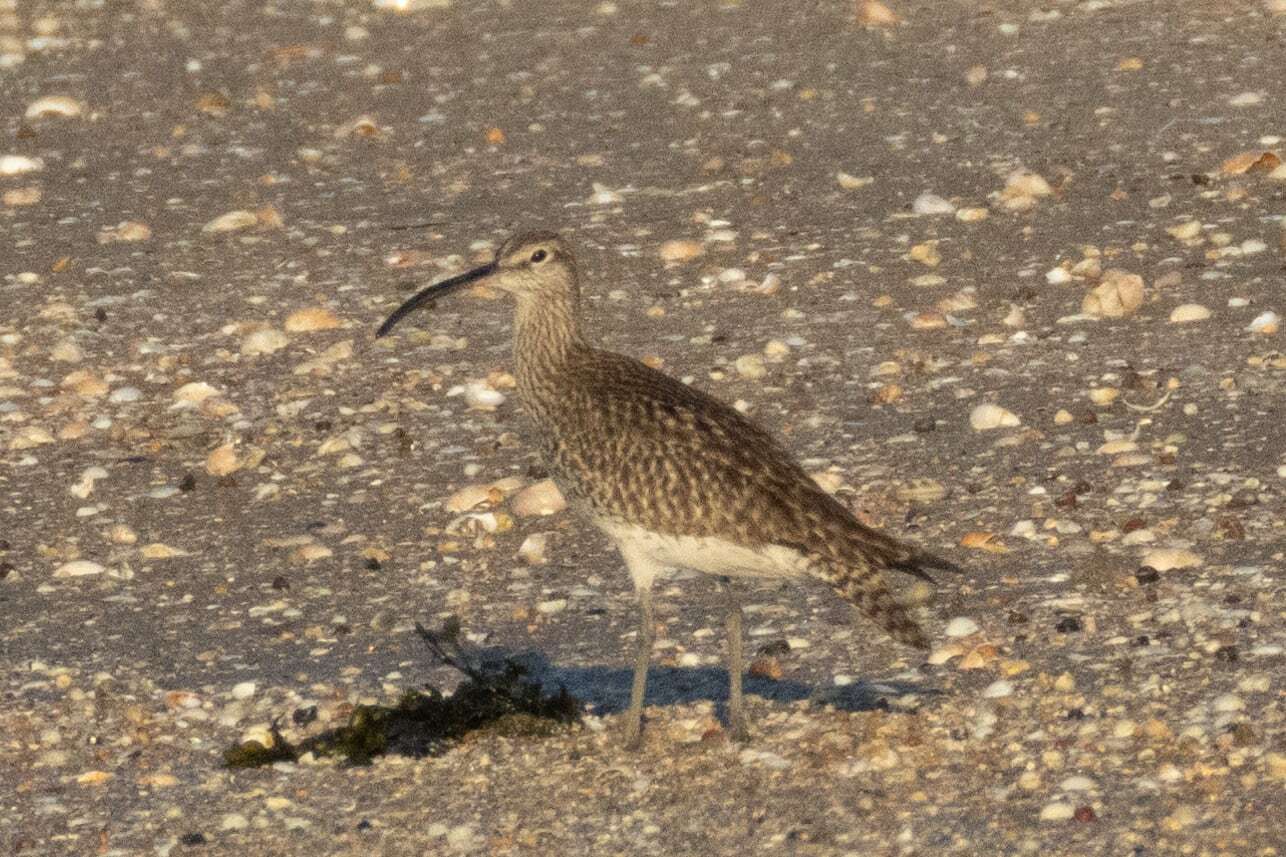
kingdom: Animalia
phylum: Chordata
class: Aves
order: Charadriiformes
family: Scolopacidae
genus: Numenius
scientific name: Numenius phaeopus
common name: Whimbrel
